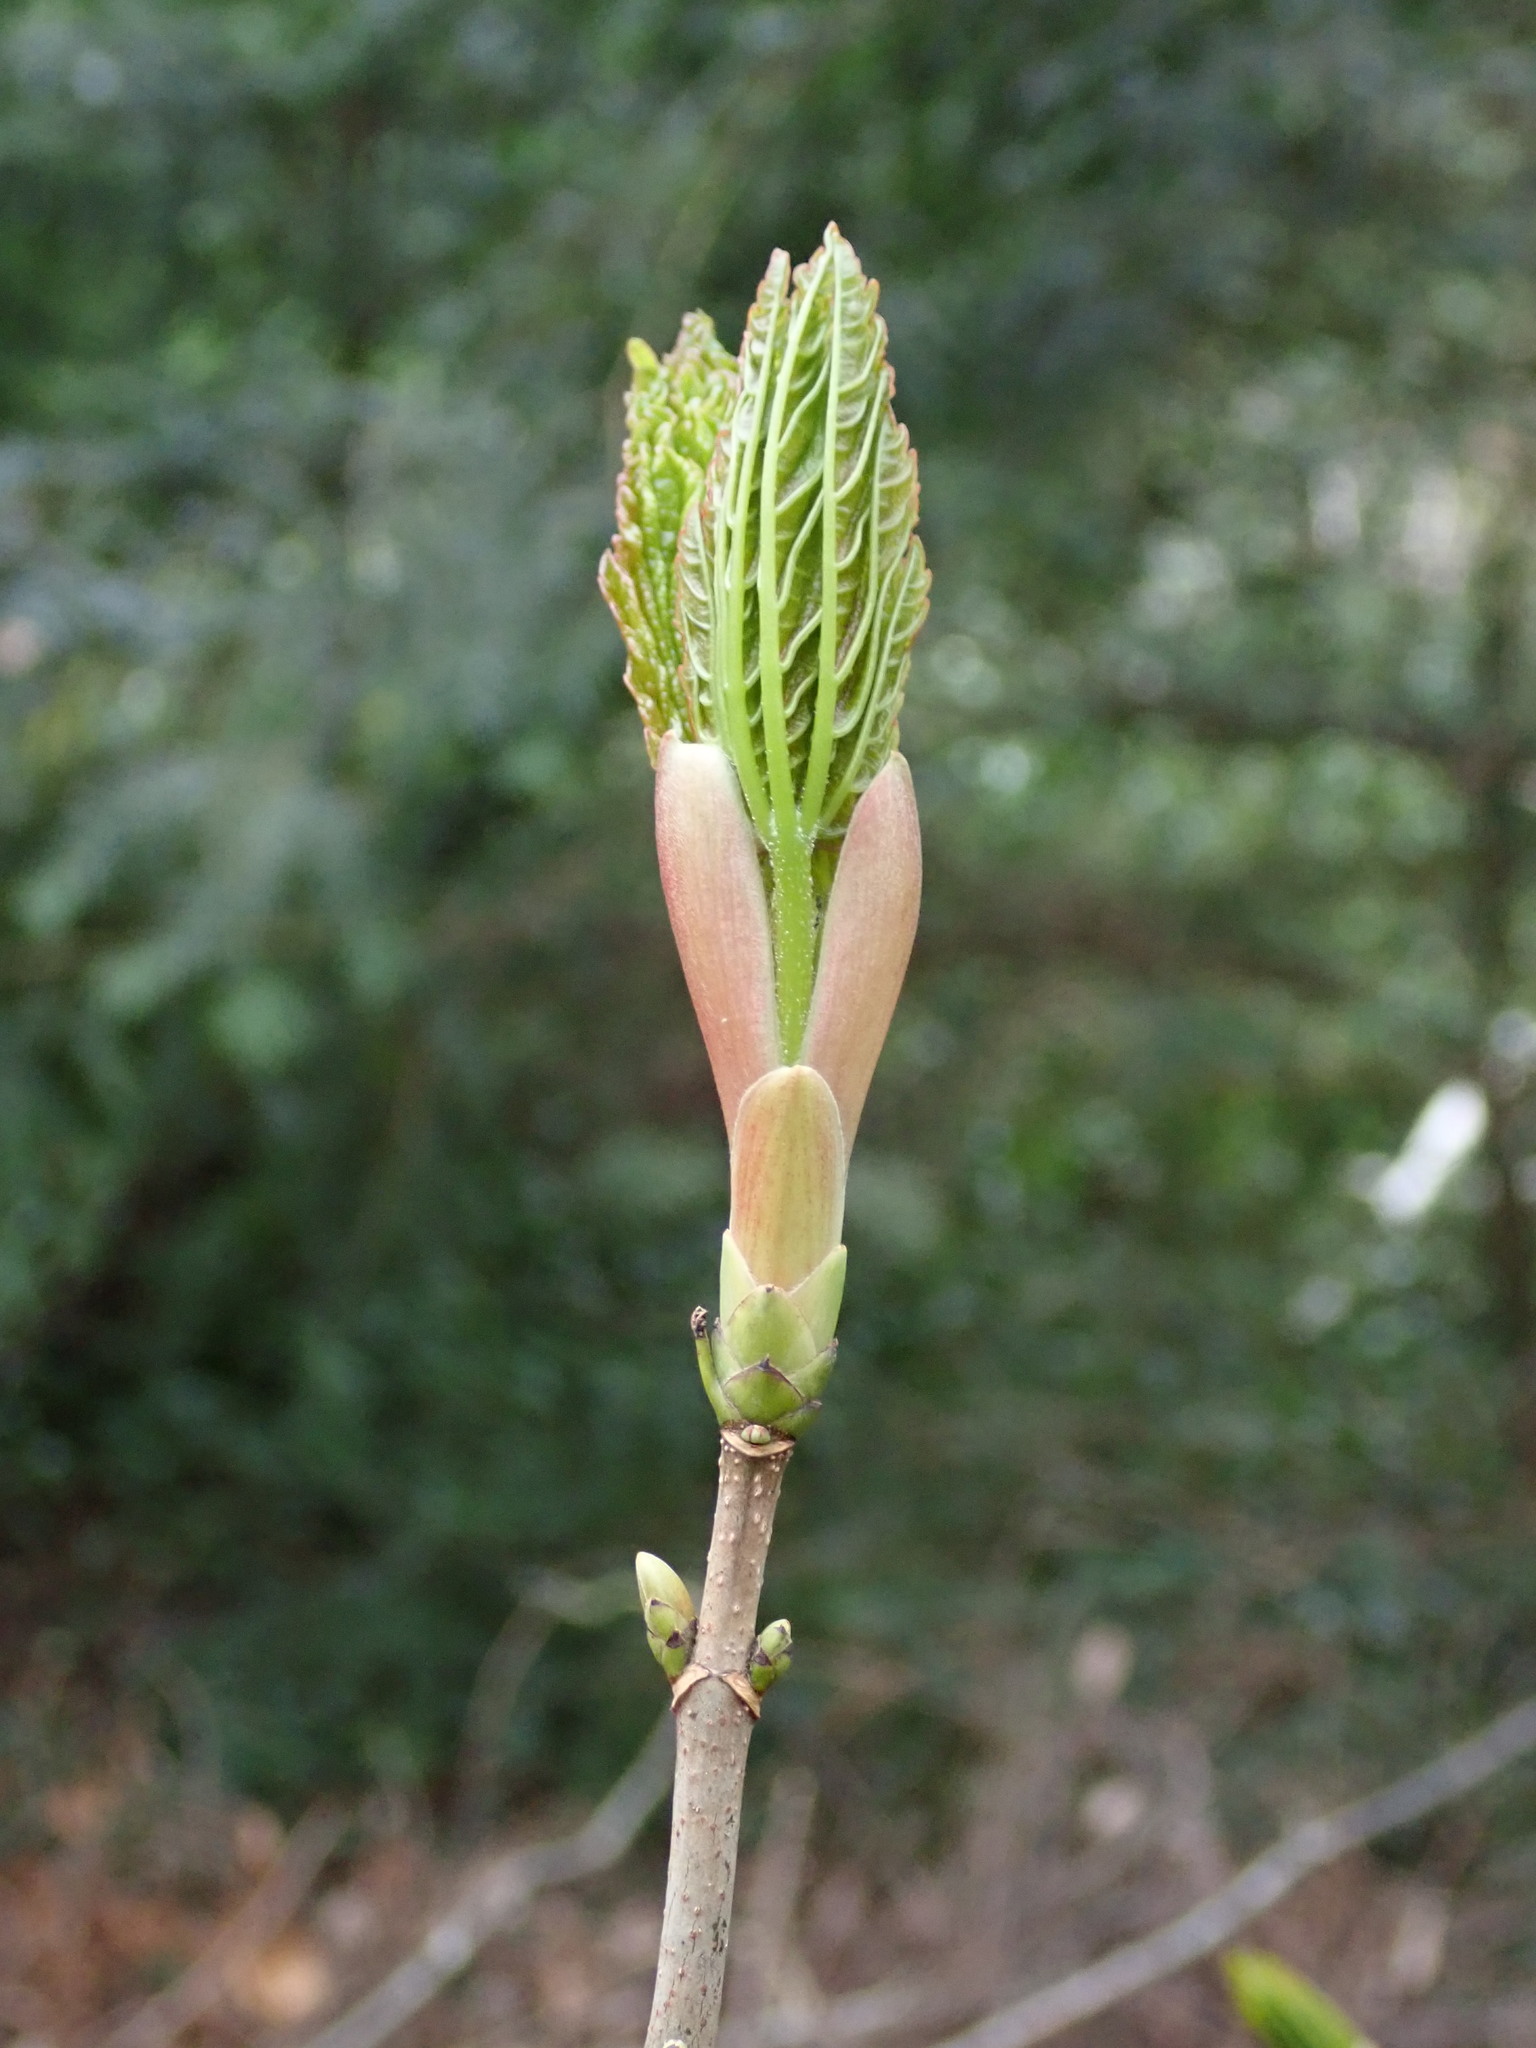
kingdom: Plantae
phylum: Tracheophyta
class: Magnoliopsida
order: Sapindales
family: Sapindaceae
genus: Acer
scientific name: Acer pseudoplatanus
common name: Sycamore
